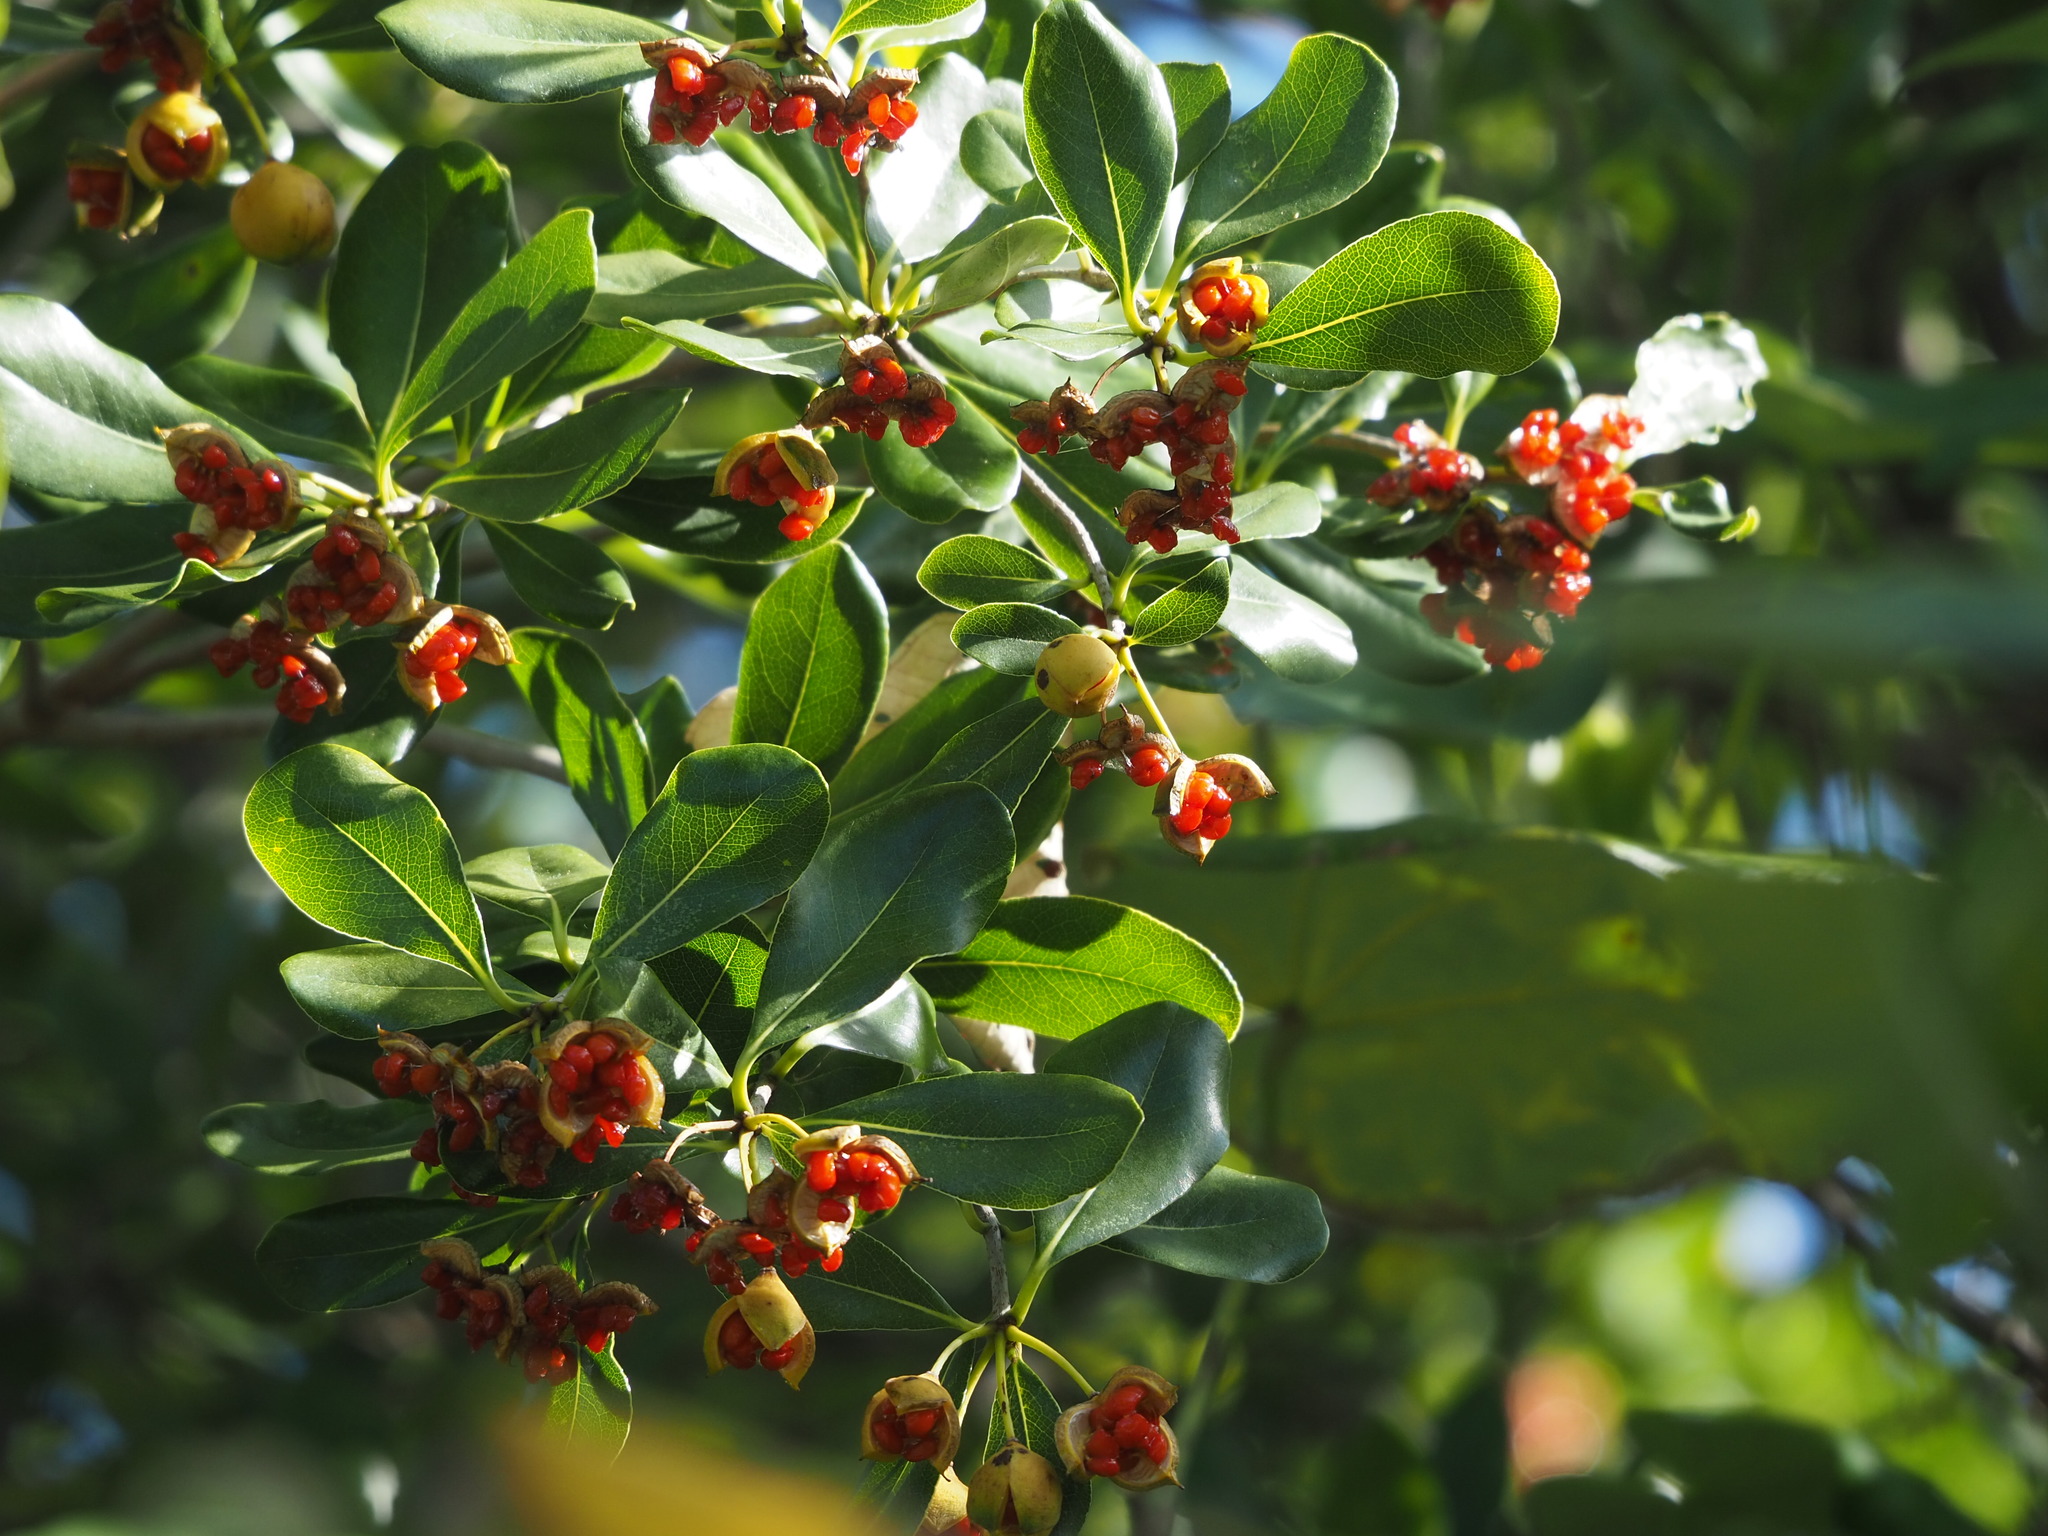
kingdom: Plantae
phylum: Tracheophyta
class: Magnoliopsida
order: Apiales
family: Pittosporaceae
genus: Pittosporum
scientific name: Pittosporum tobira
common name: Japanese cheesewood
